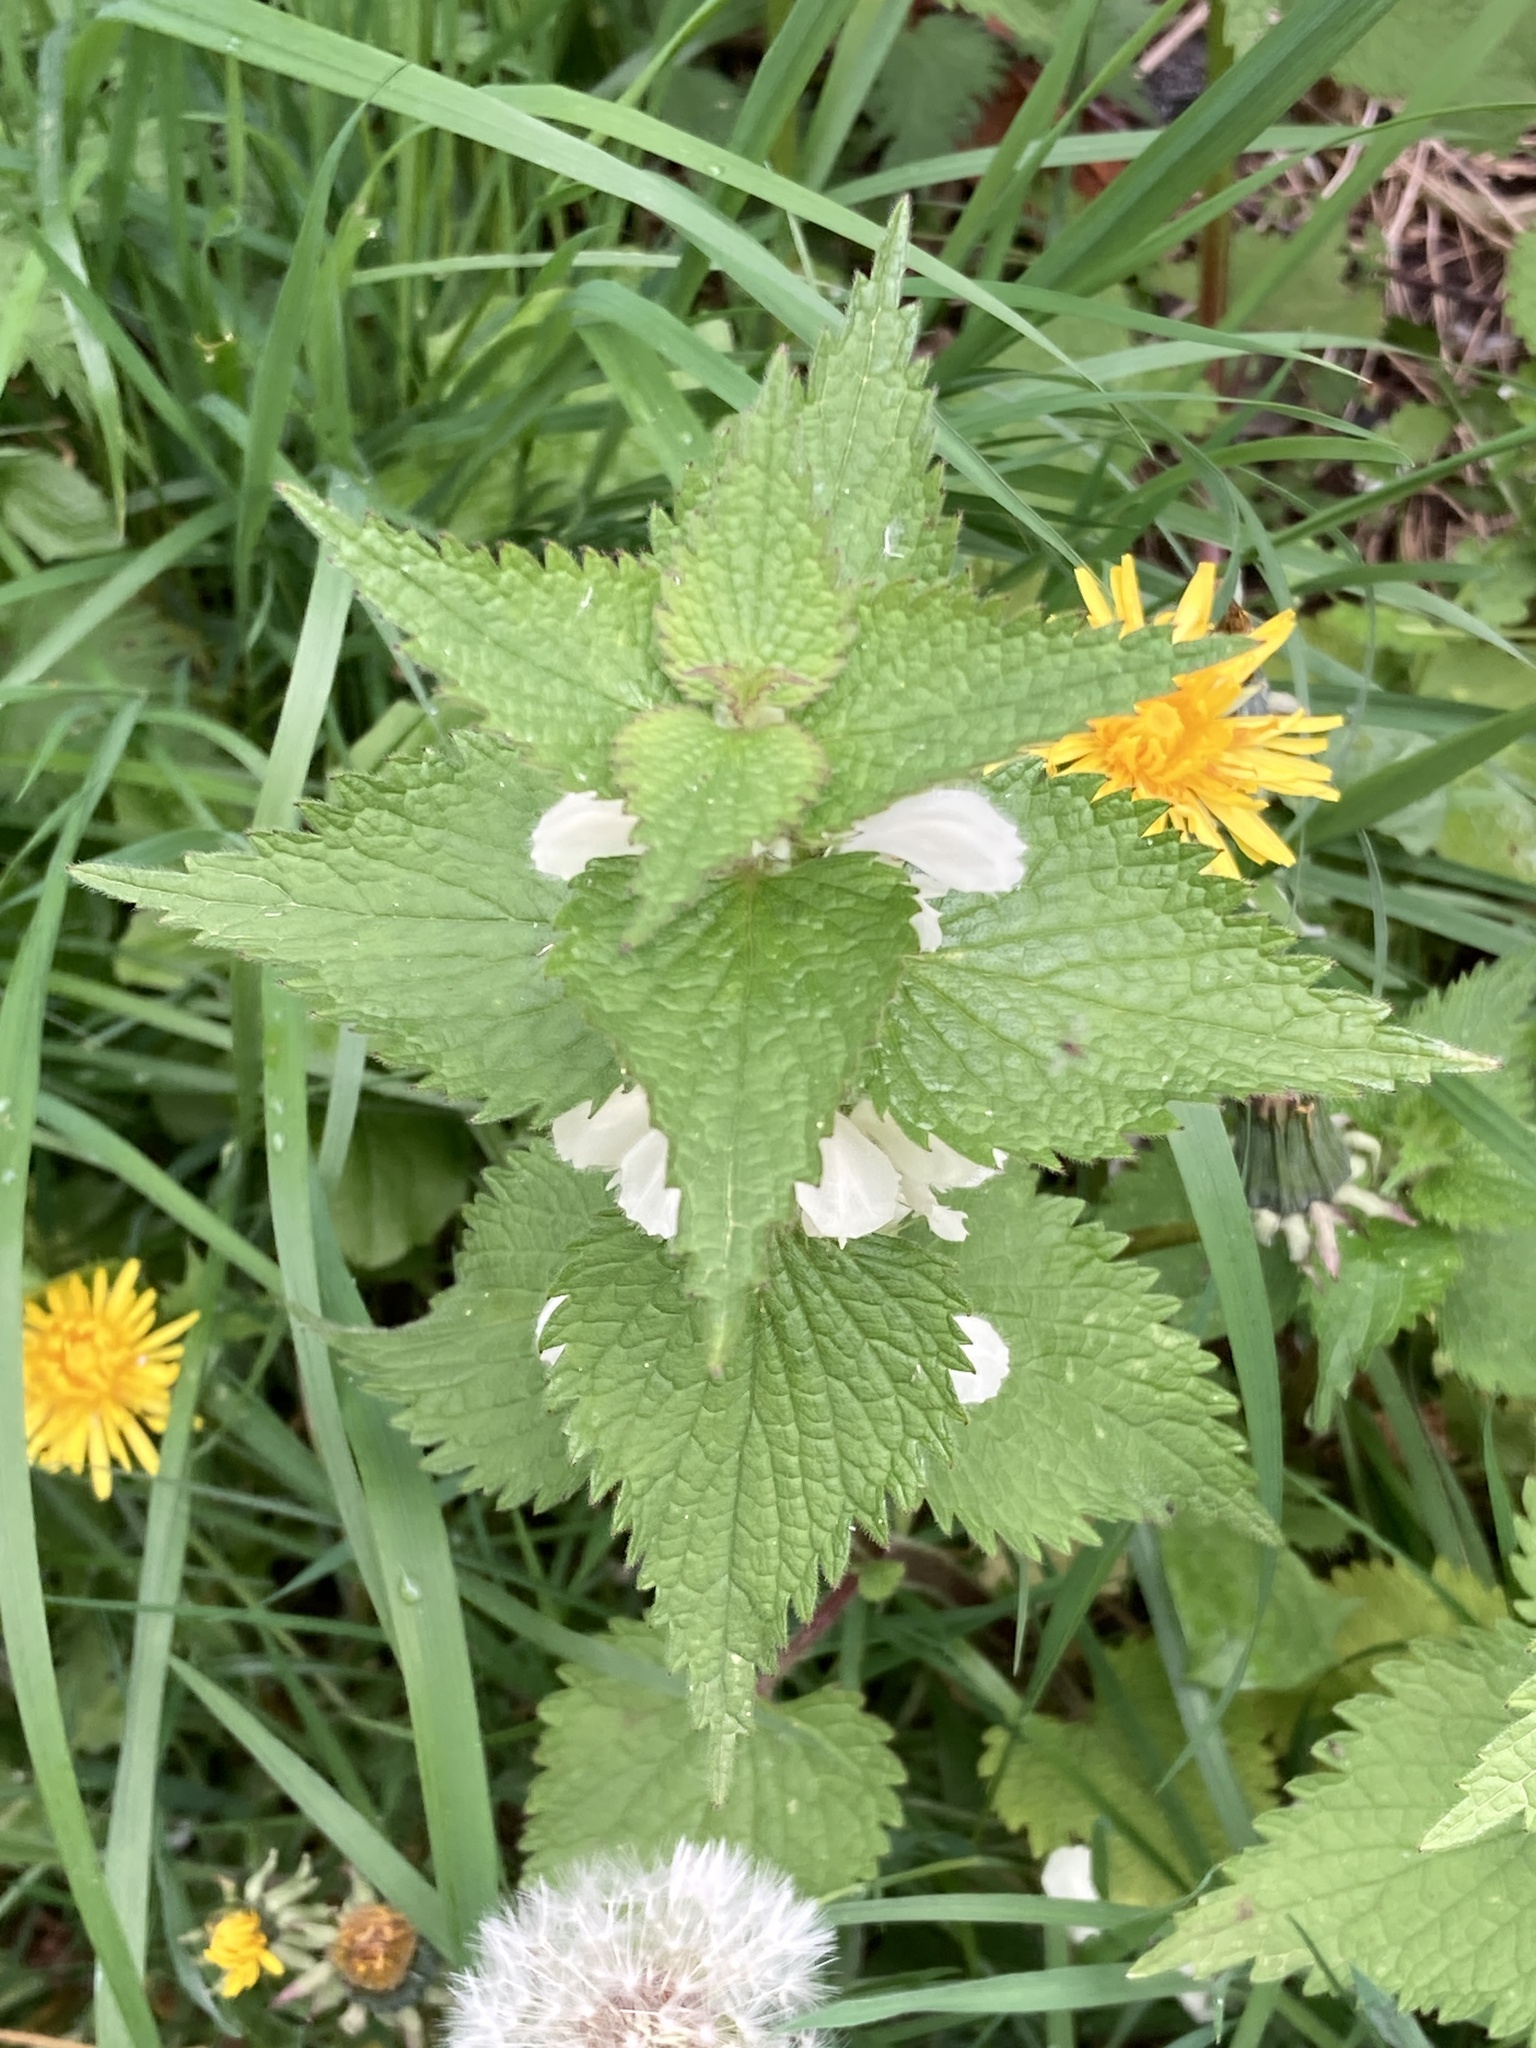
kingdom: Plantae
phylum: Tracheophyta
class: Magnoliopsida
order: Lamiales
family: Lamiaceae
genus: Lamium
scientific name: Lamium album
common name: White dead-nettle
